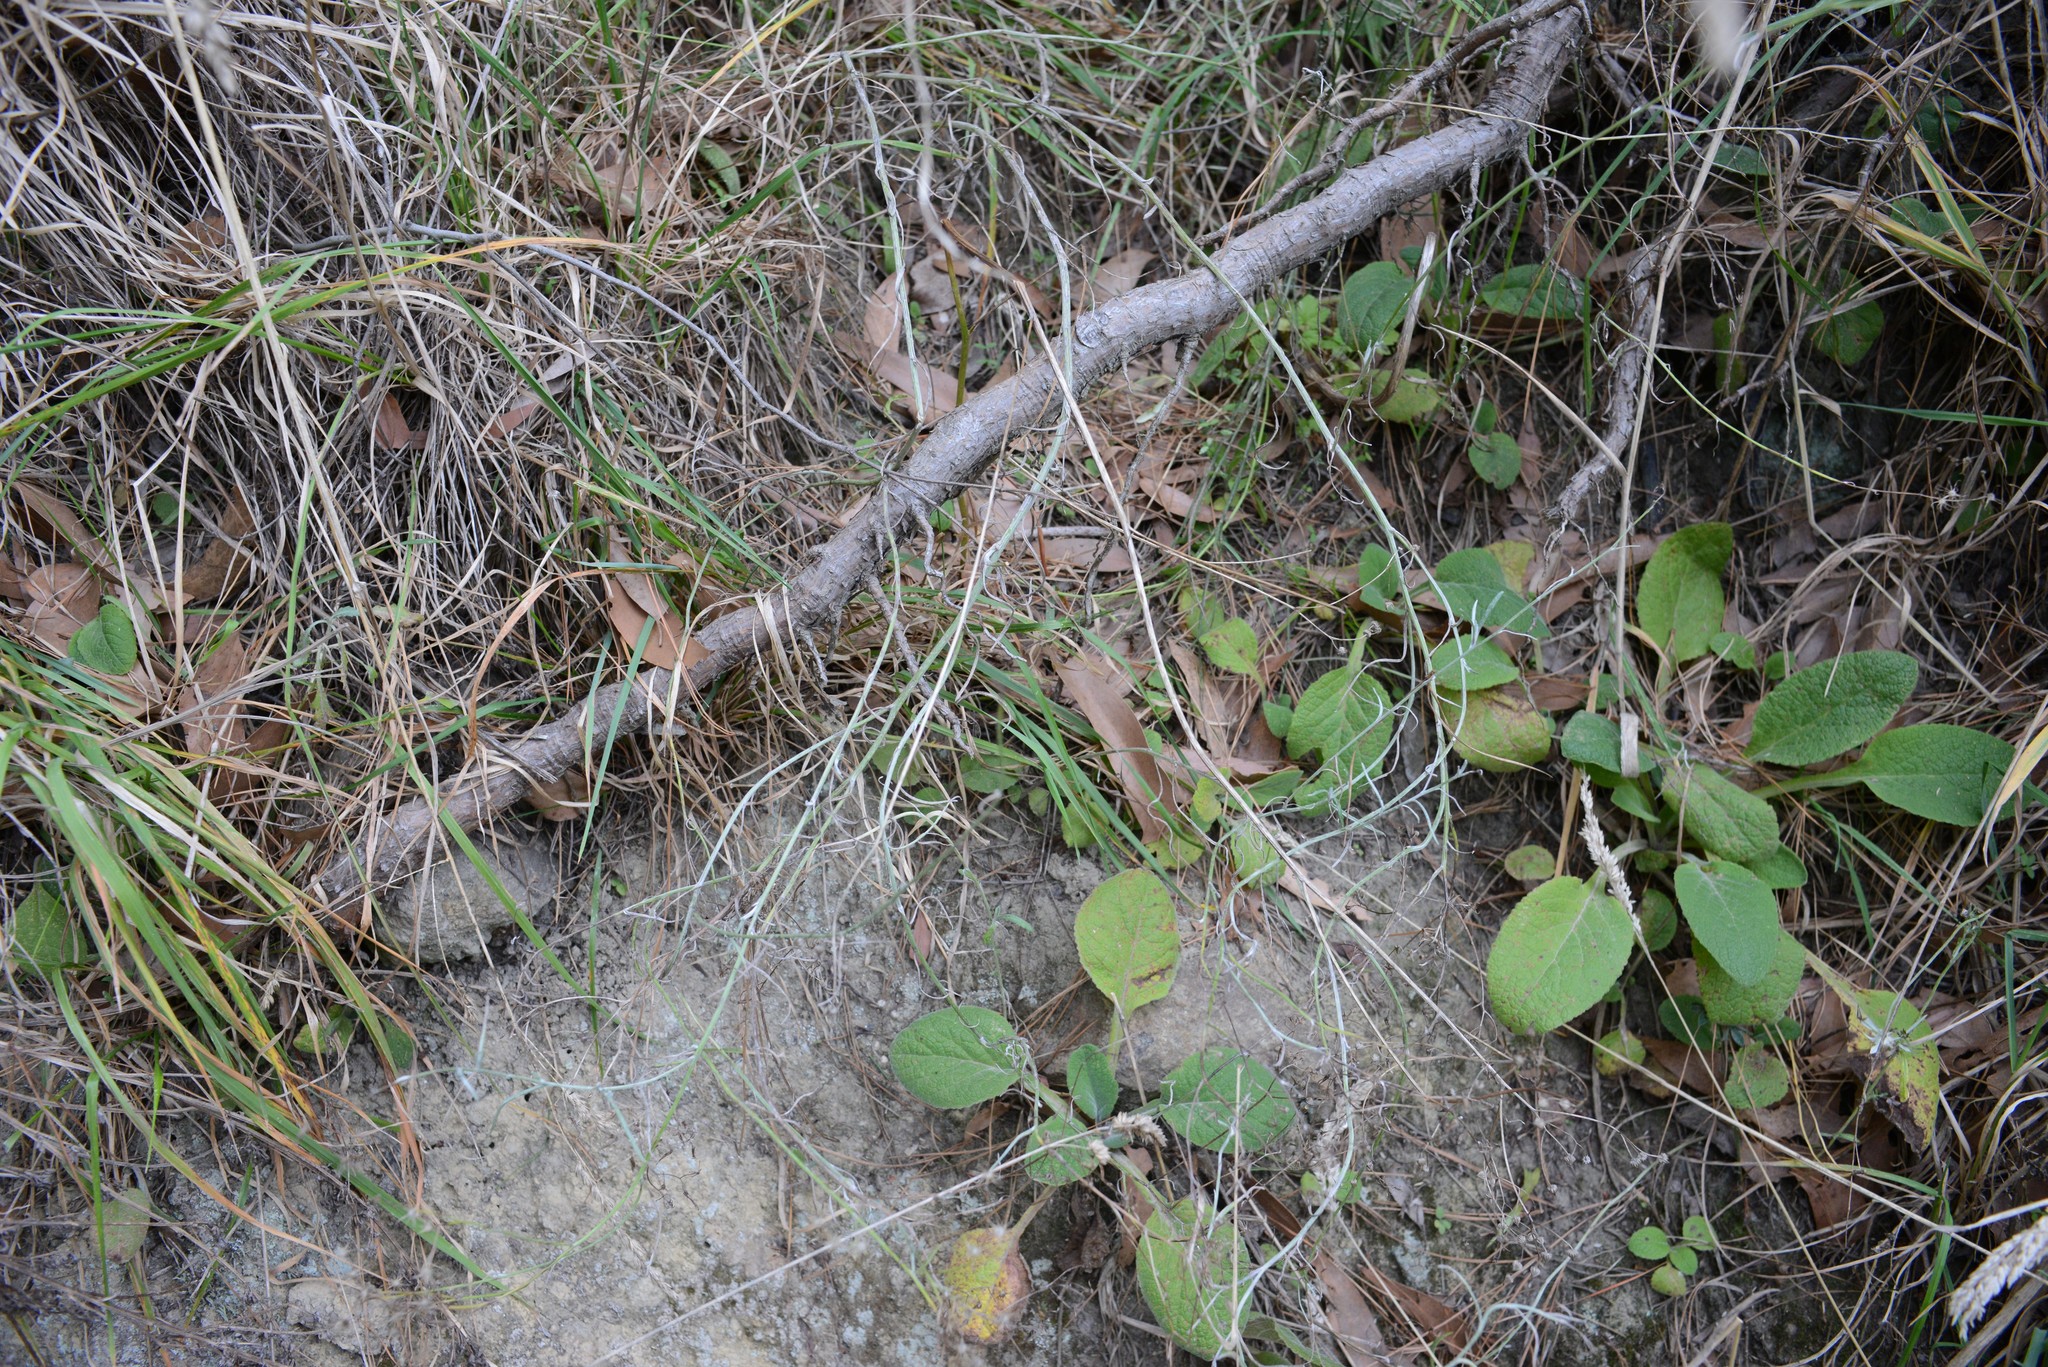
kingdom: Plantae
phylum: Tracheophyta
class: Magnoliopsida
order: Asterales
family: Asteraceae
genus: Senecio
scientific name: Senecio quadridentatus
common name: Cotton fireweed
